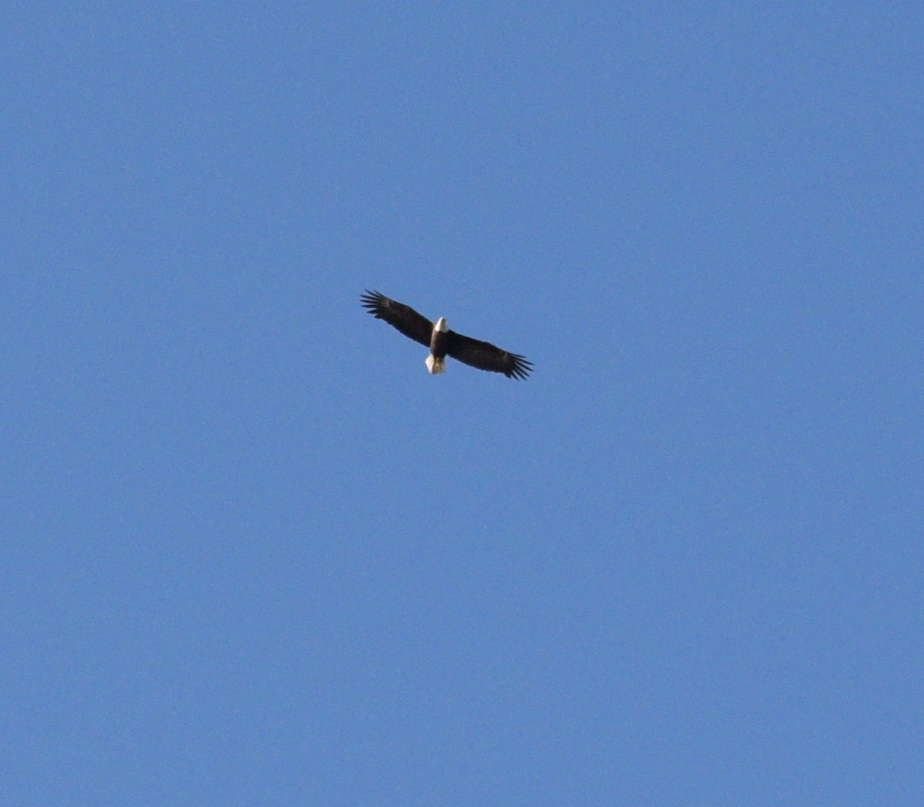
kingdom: Animalia
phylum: Chordata
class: Aves
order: Accipitriformes
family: Accipitridae
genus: Haliaeetus
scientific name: Haliaeetus leucocephalus
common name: Bald eagle
